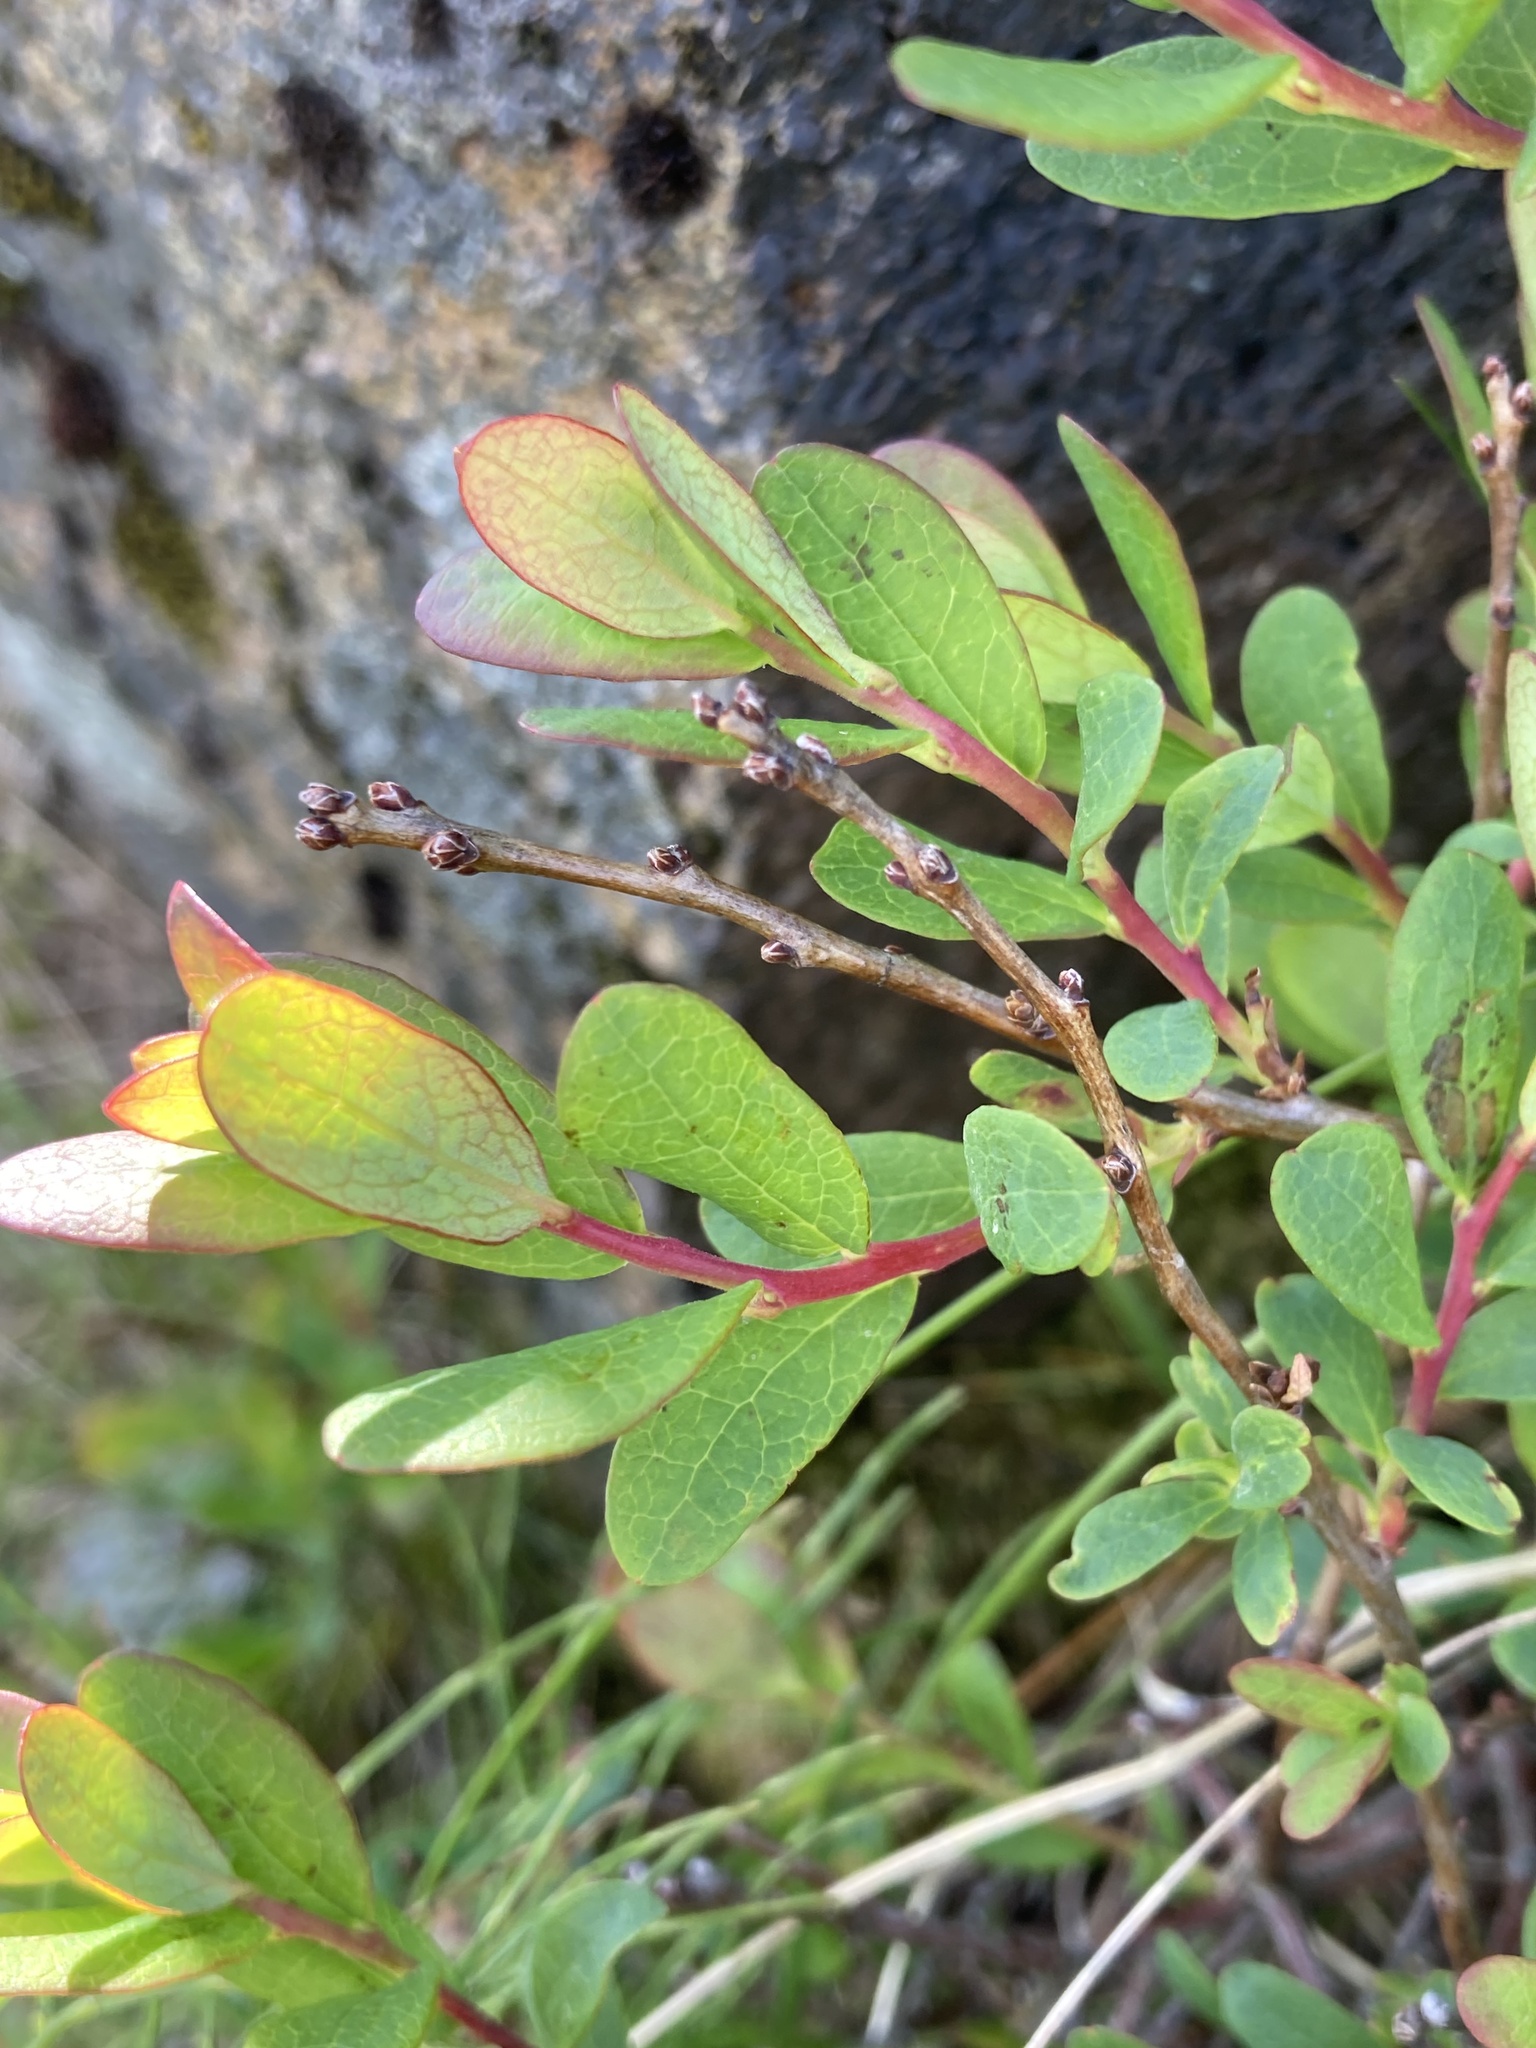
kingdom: Plantae
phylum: Tracheophyta
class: Magnoliopsida
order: Ericales
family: Ericaceae
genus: Vaccinium
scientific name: Vaccinium uliginosum
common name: Bog bilberry
